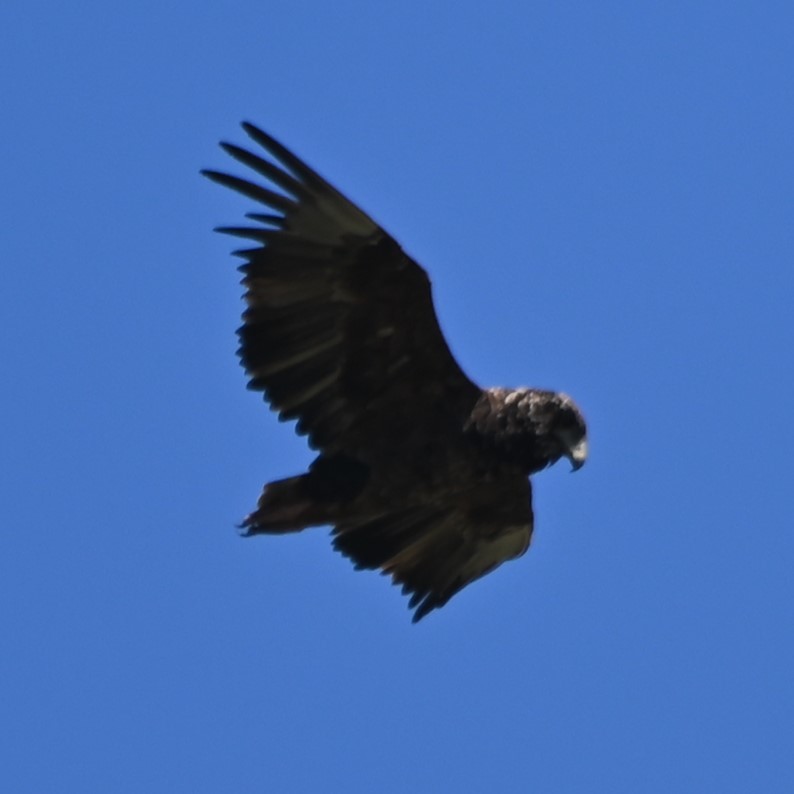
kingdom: Animalia
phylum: Chordata
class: Aves
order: Accipitriformes
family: Accipitridae
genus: Terathopius
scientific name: Terathopius ecaudatus
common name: Bateleur
